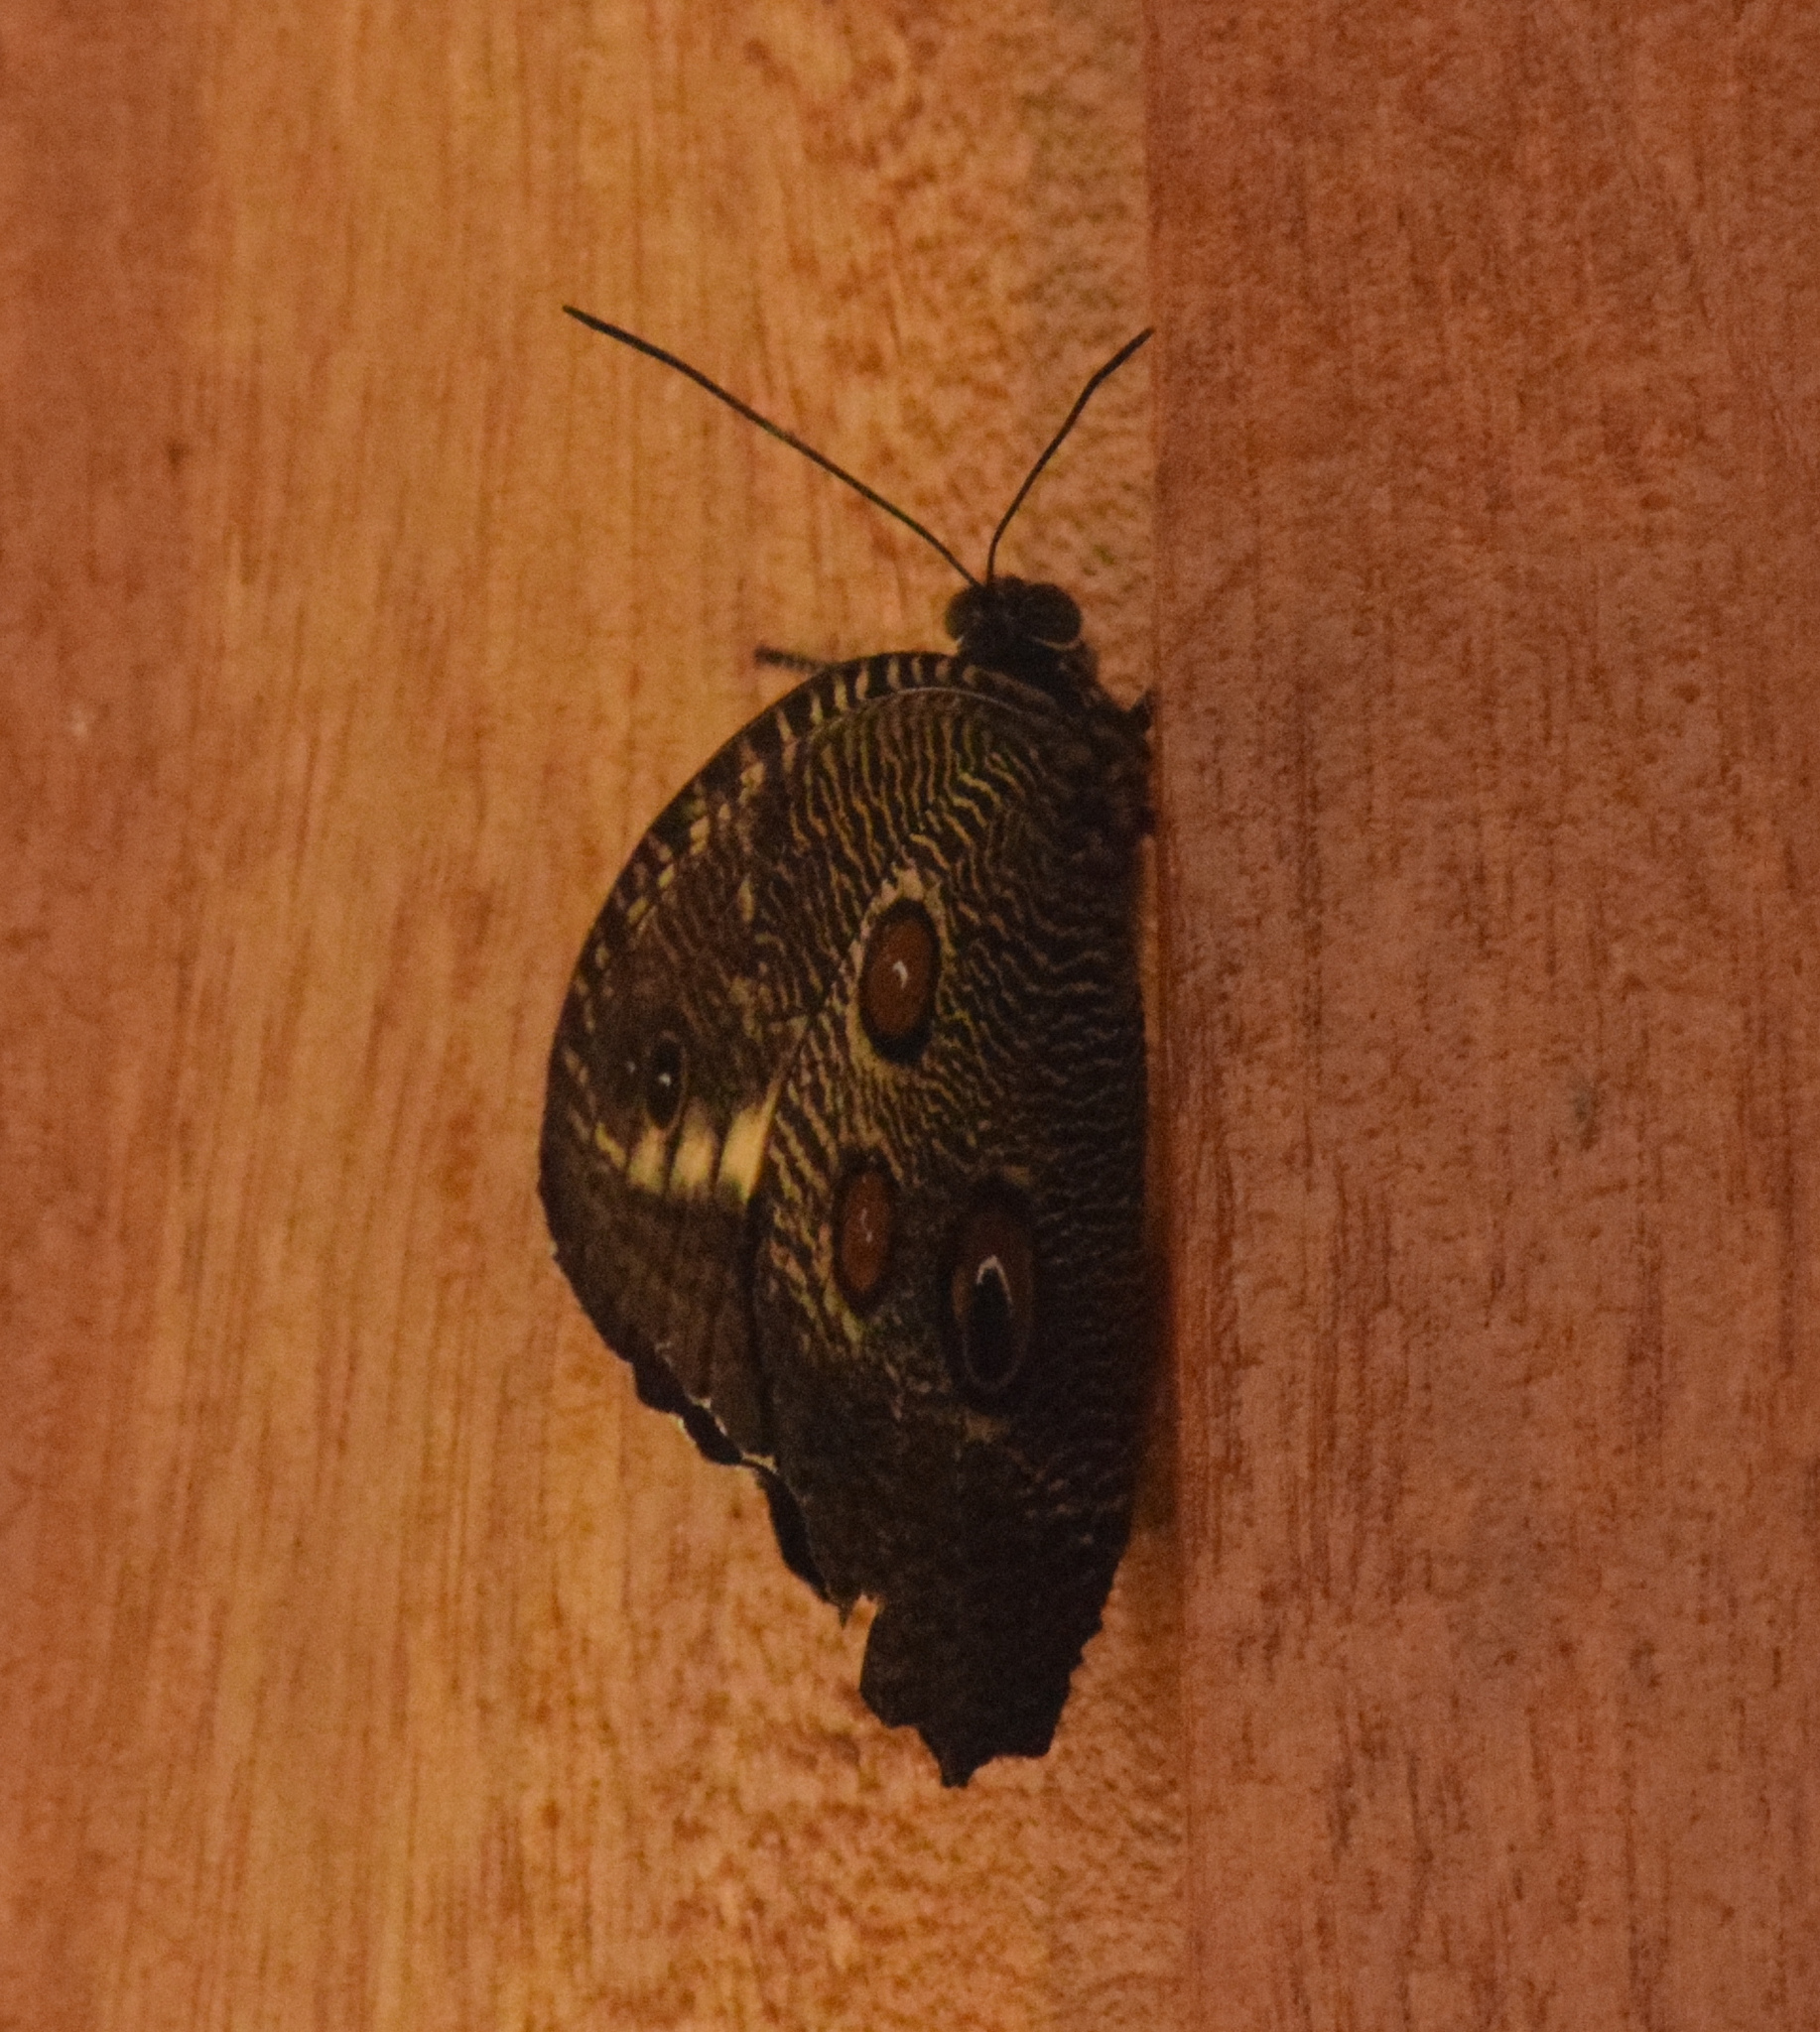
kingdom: Animalia
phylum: Arthropoda
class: Insecta
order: Lepidoptera
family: Nymphalidae
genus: Dasyophthalma
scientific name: Dasyophthalma creusa
